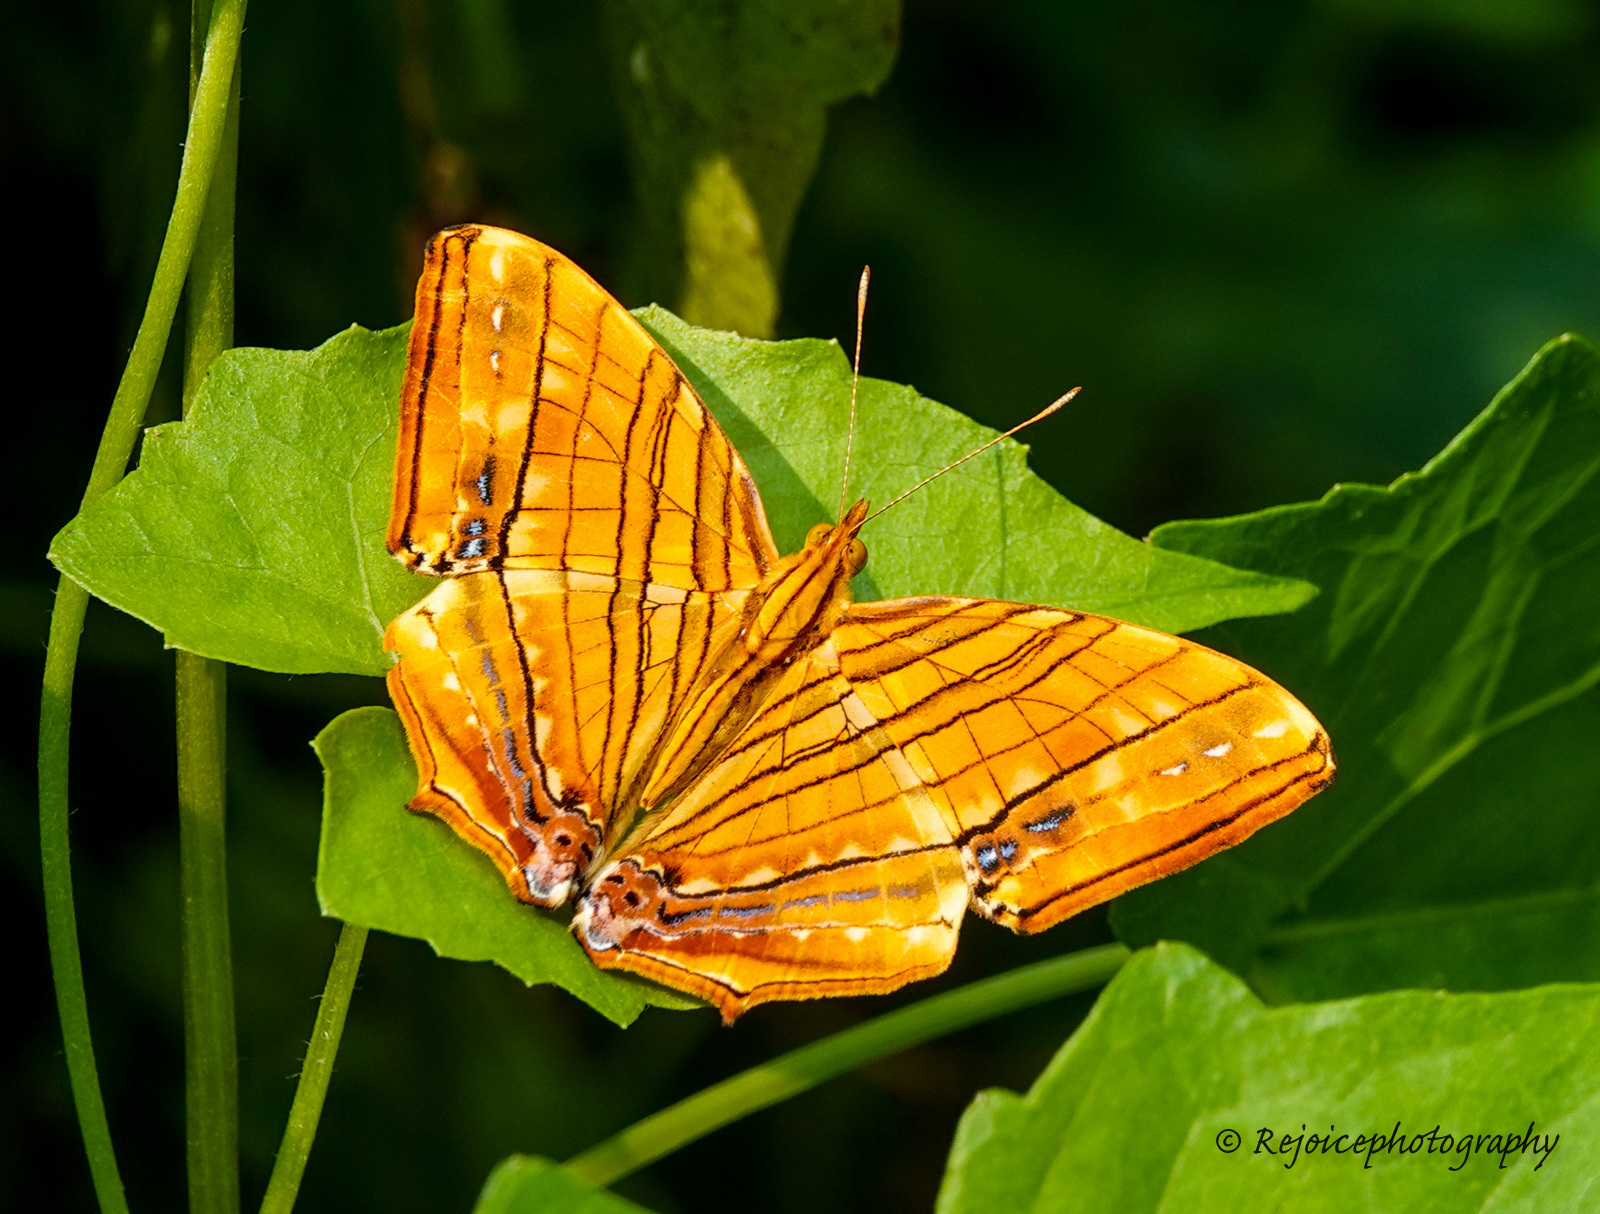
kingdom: Animalia
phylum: Arthropoda
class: Insecta
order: Lepidoptera
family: Nymphalidae
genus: Chersonesia
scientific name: Chersonesia risa
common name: Common maplet
